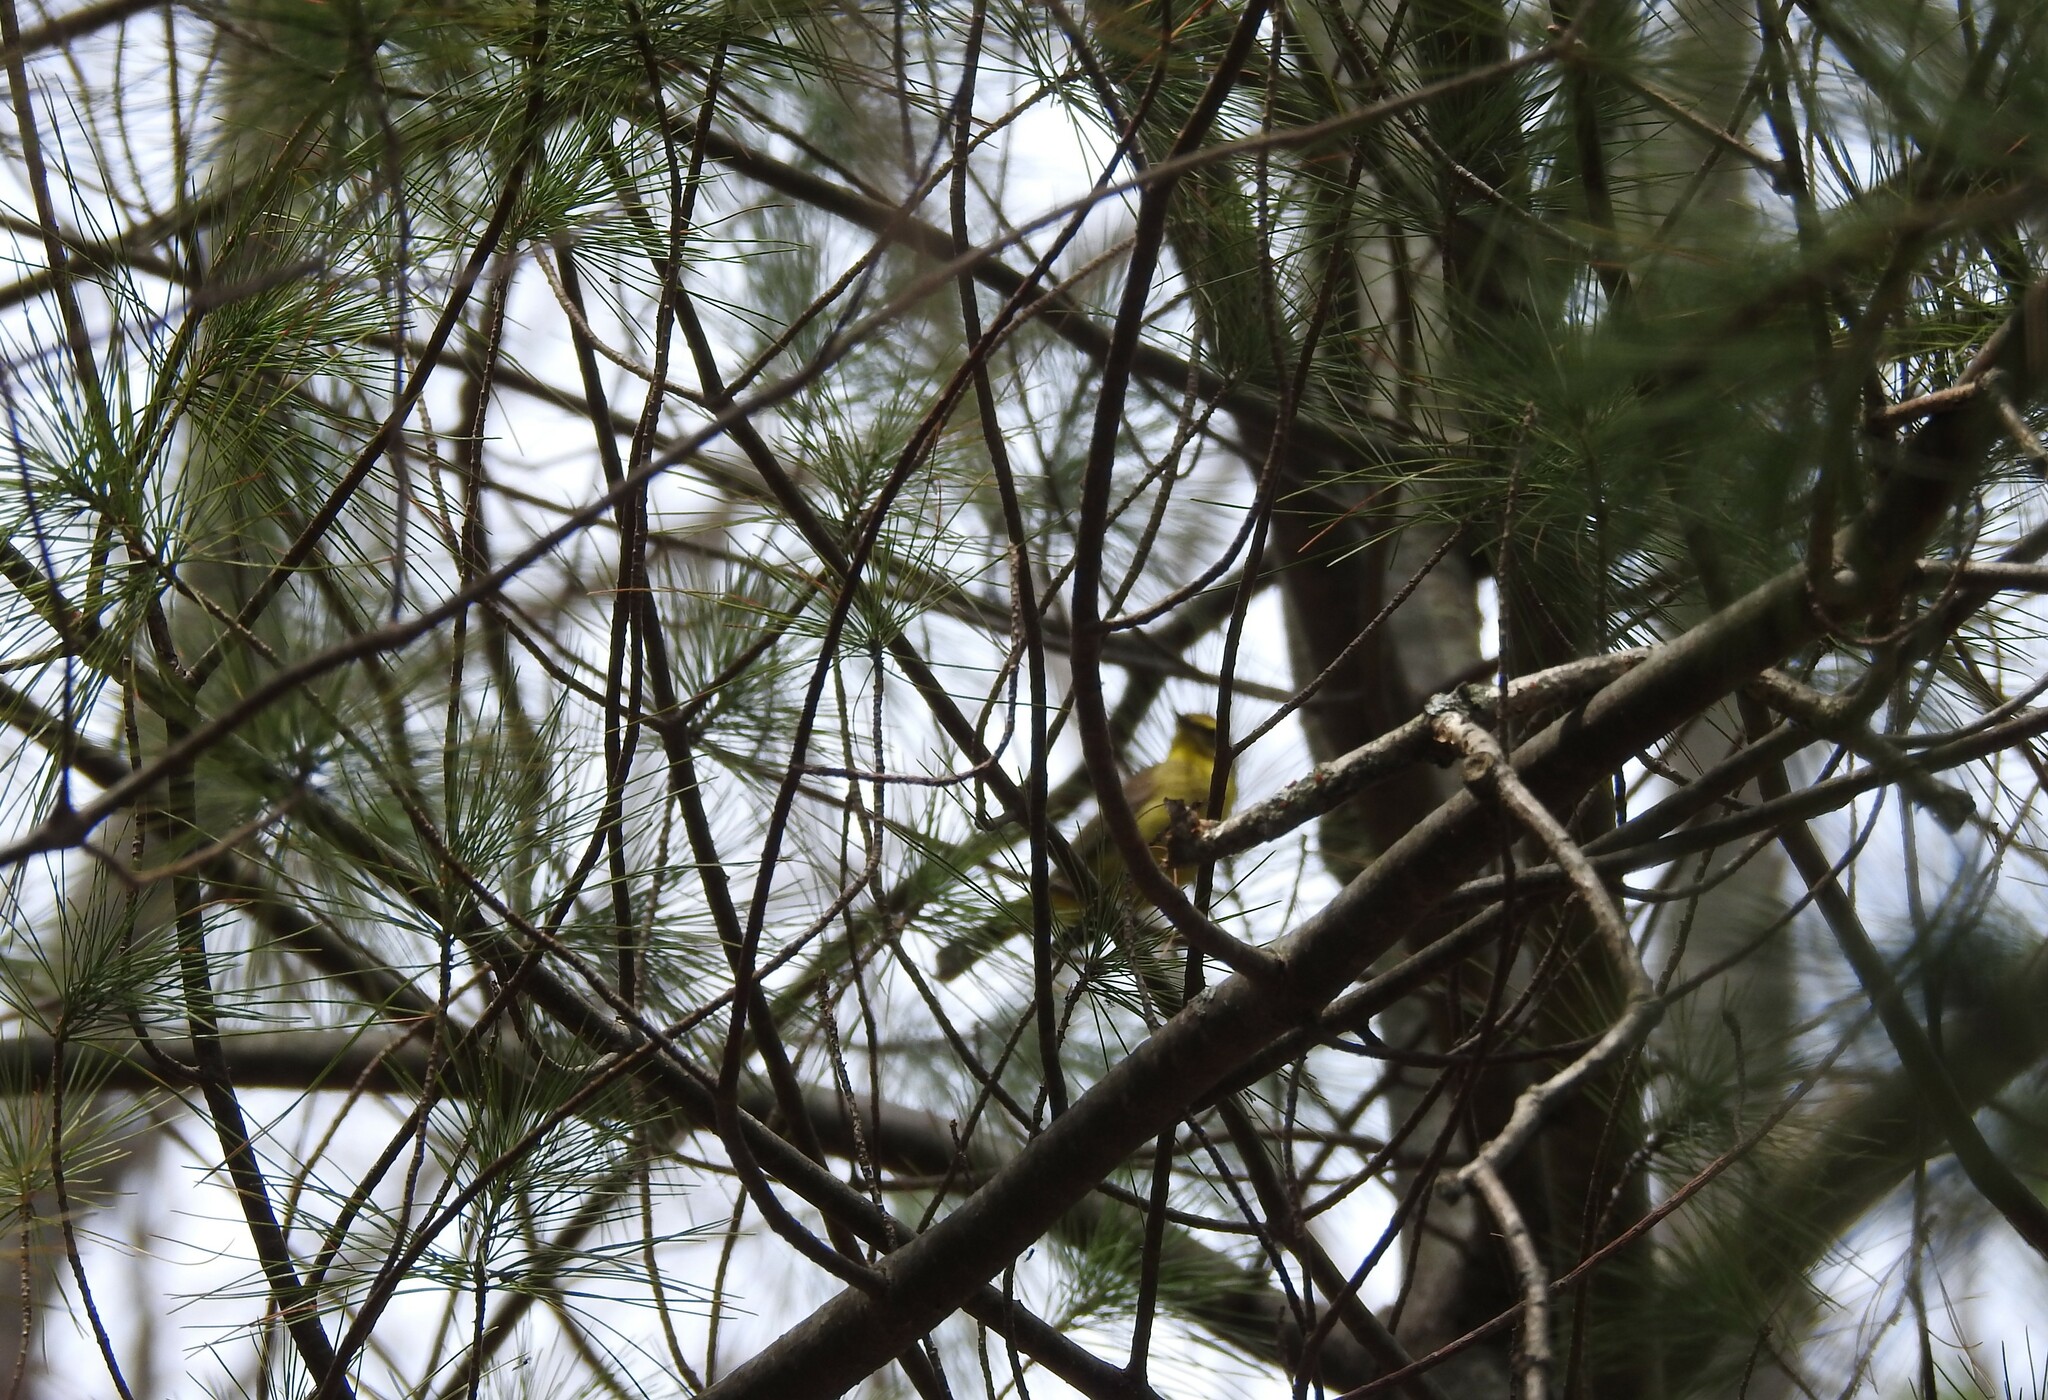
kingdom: Animalia
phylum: Chordata
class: Aves
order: Passeriformes
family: Parulidae
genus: Setophaga
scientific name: Setophaga palmarum
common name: Palm warbler
